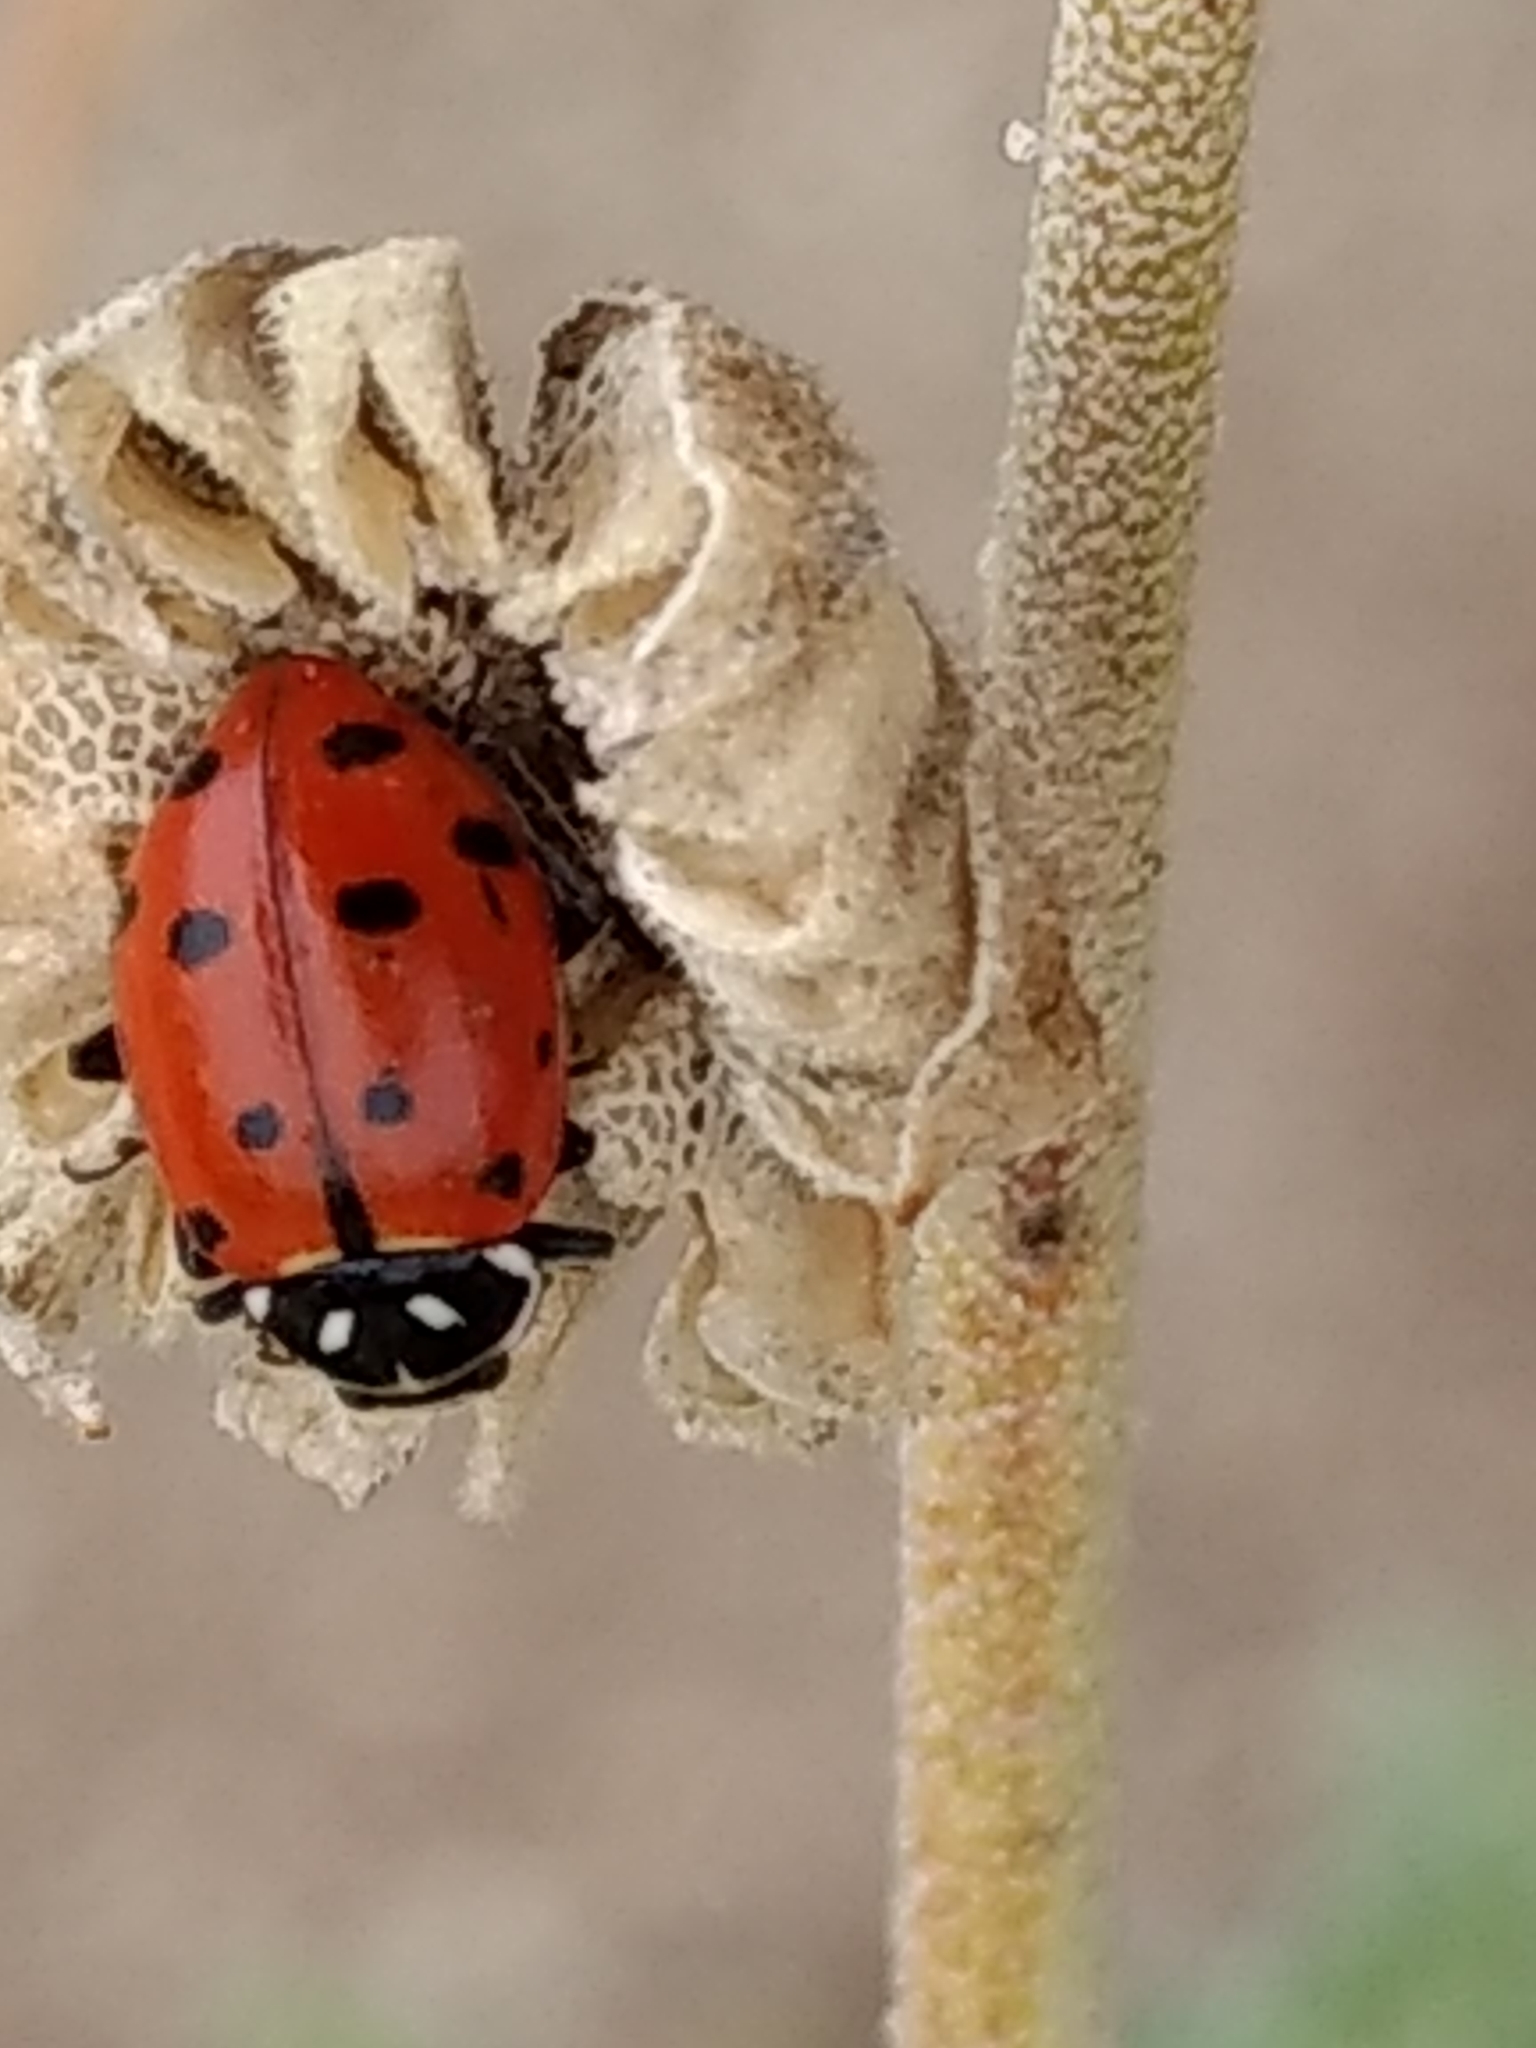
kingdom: Animalia
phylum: Arthropoda
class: Insecta
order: Coleoptera
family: Coccinellidae
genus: Hippodamia
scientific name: Hippodamia convergens
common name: Convergent lady beetle
